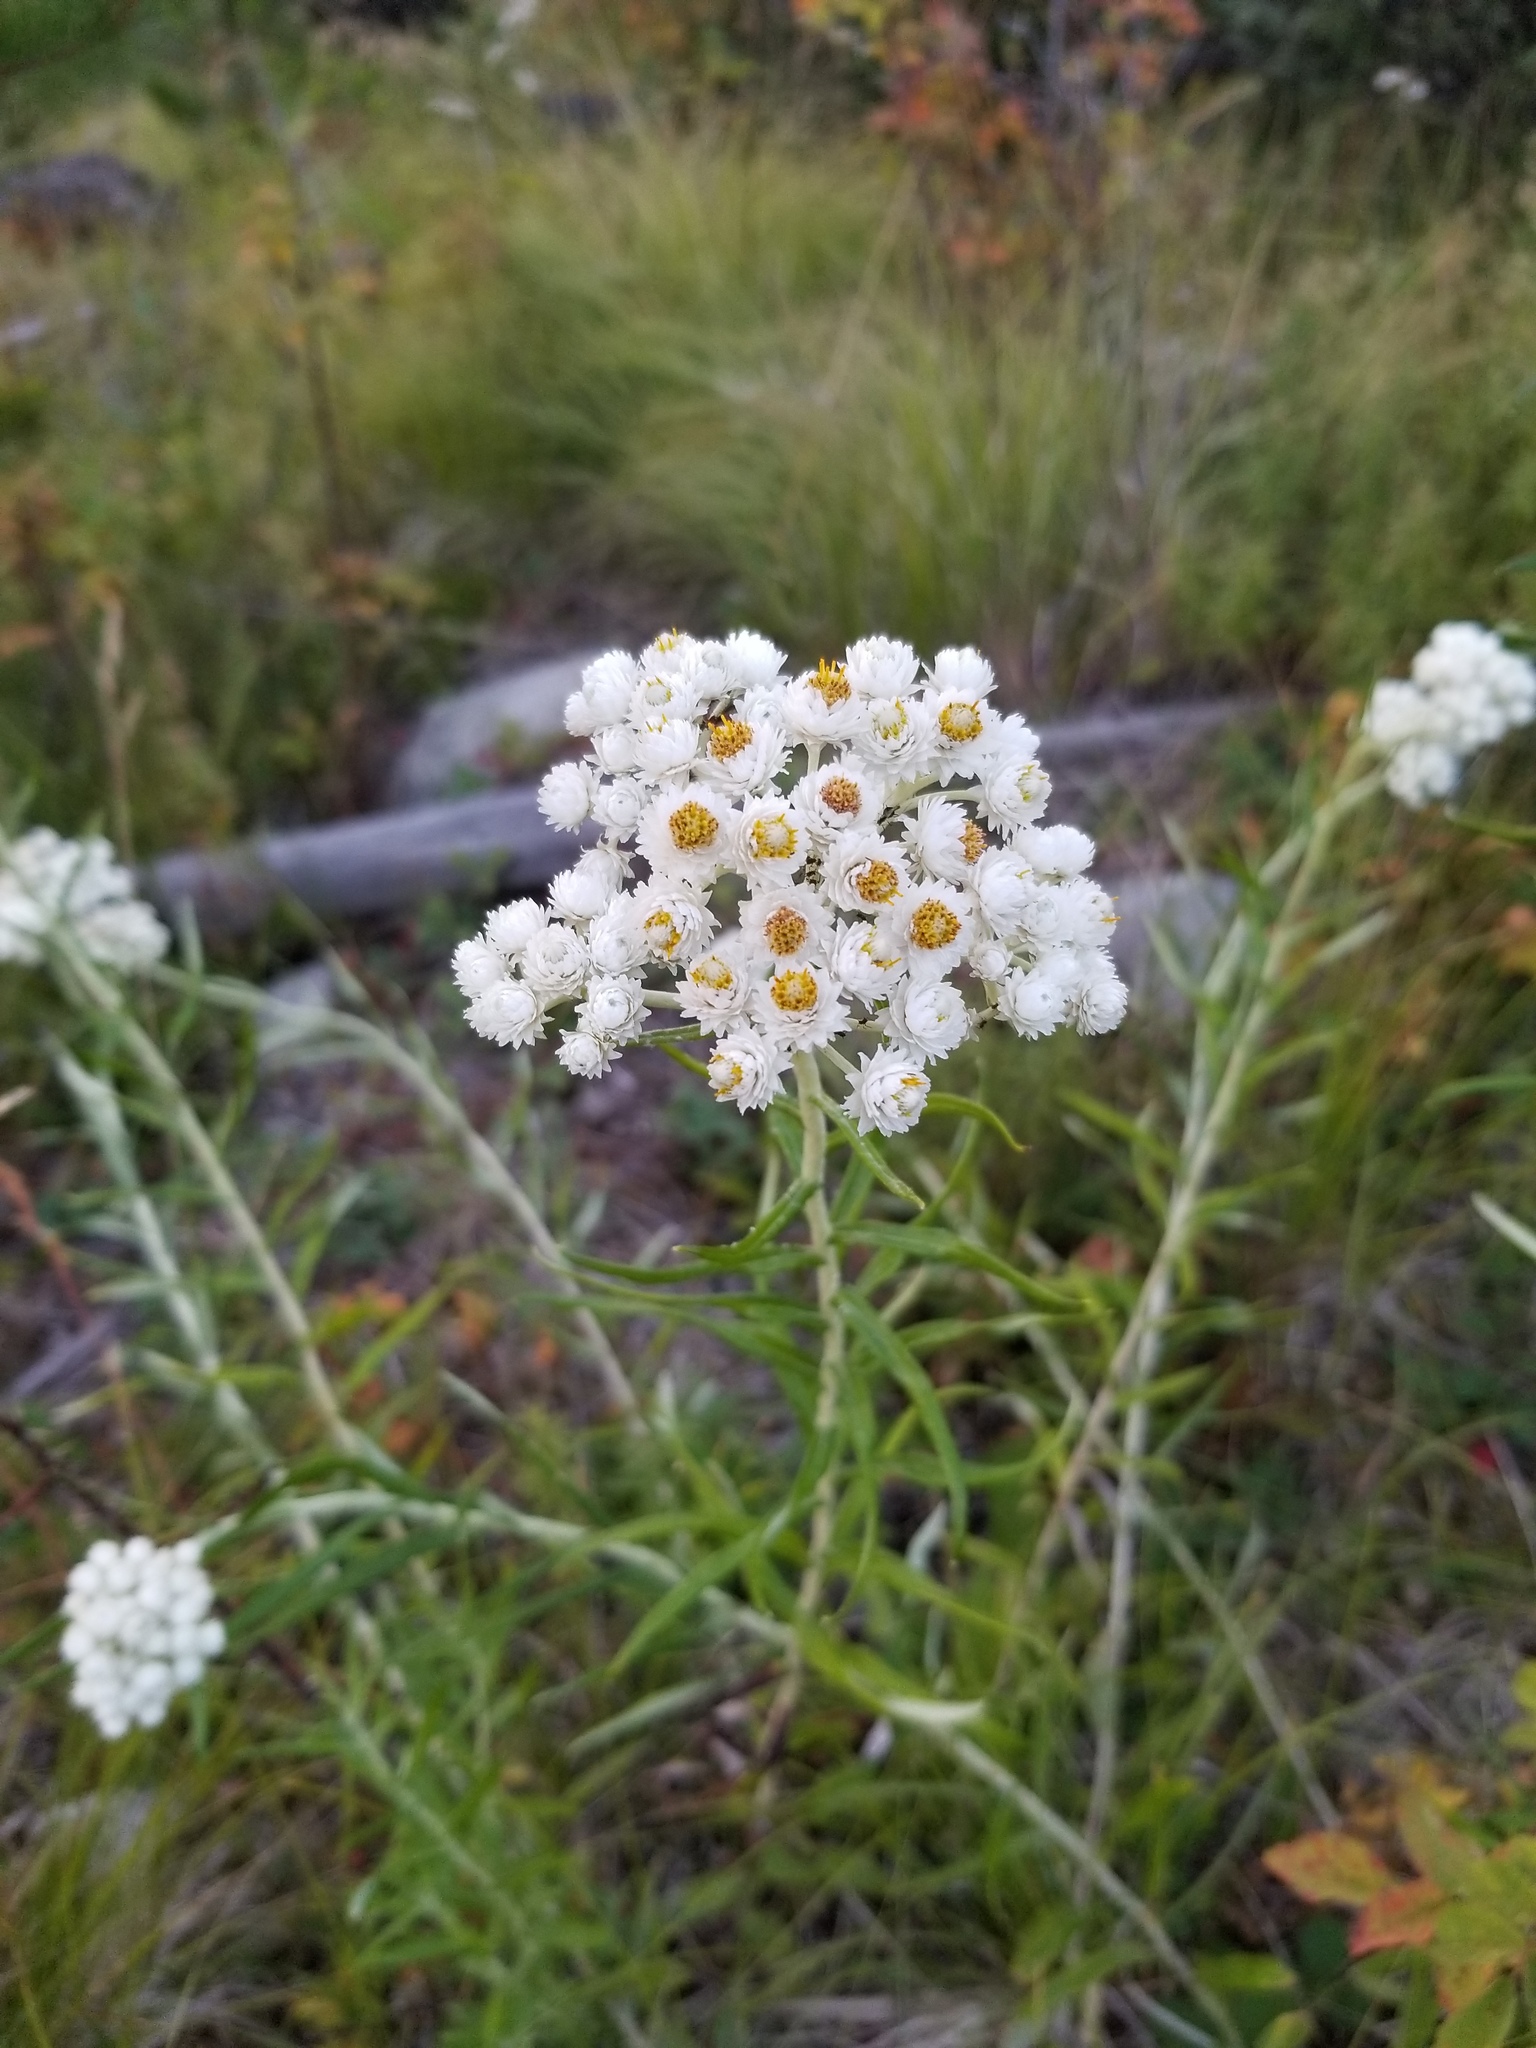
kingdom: Plantae
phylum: Tracheophyta
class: Magnoliopsida
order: Asterales
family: Asteraceae
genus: Anaphalis
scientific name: Anaphalis margaritacea
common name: Pearly everlasting
